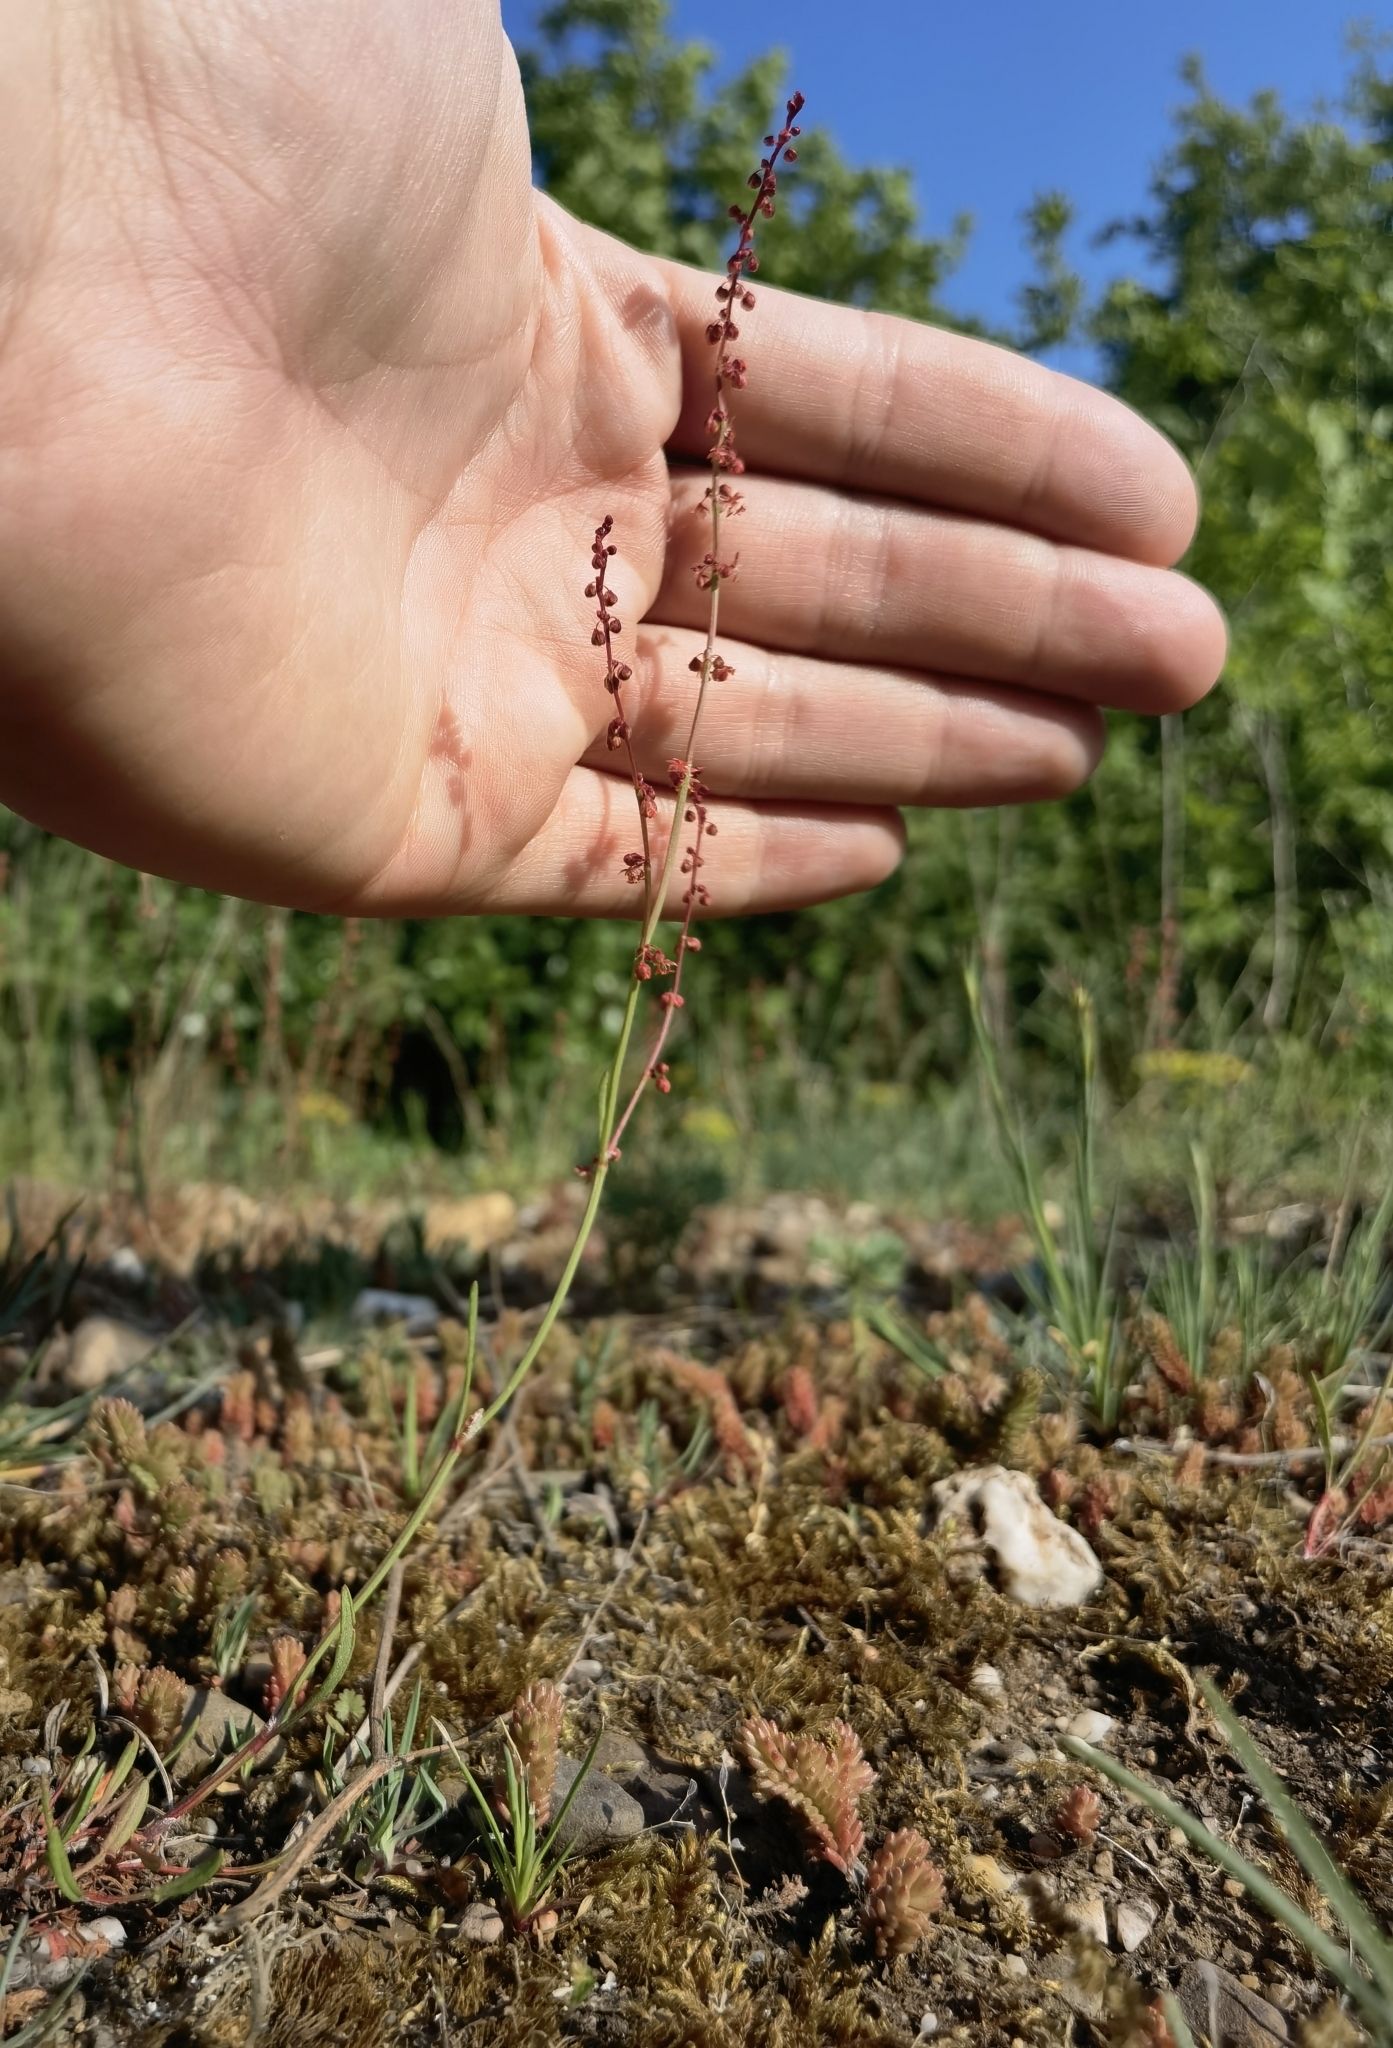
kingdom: Plantae
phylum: Tracheophyta
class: Magnoliopsida
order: Caryophyllales
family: Polygonaceae
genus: Rumex
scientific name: Rumex acetosella
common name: Common sheep sorrel
